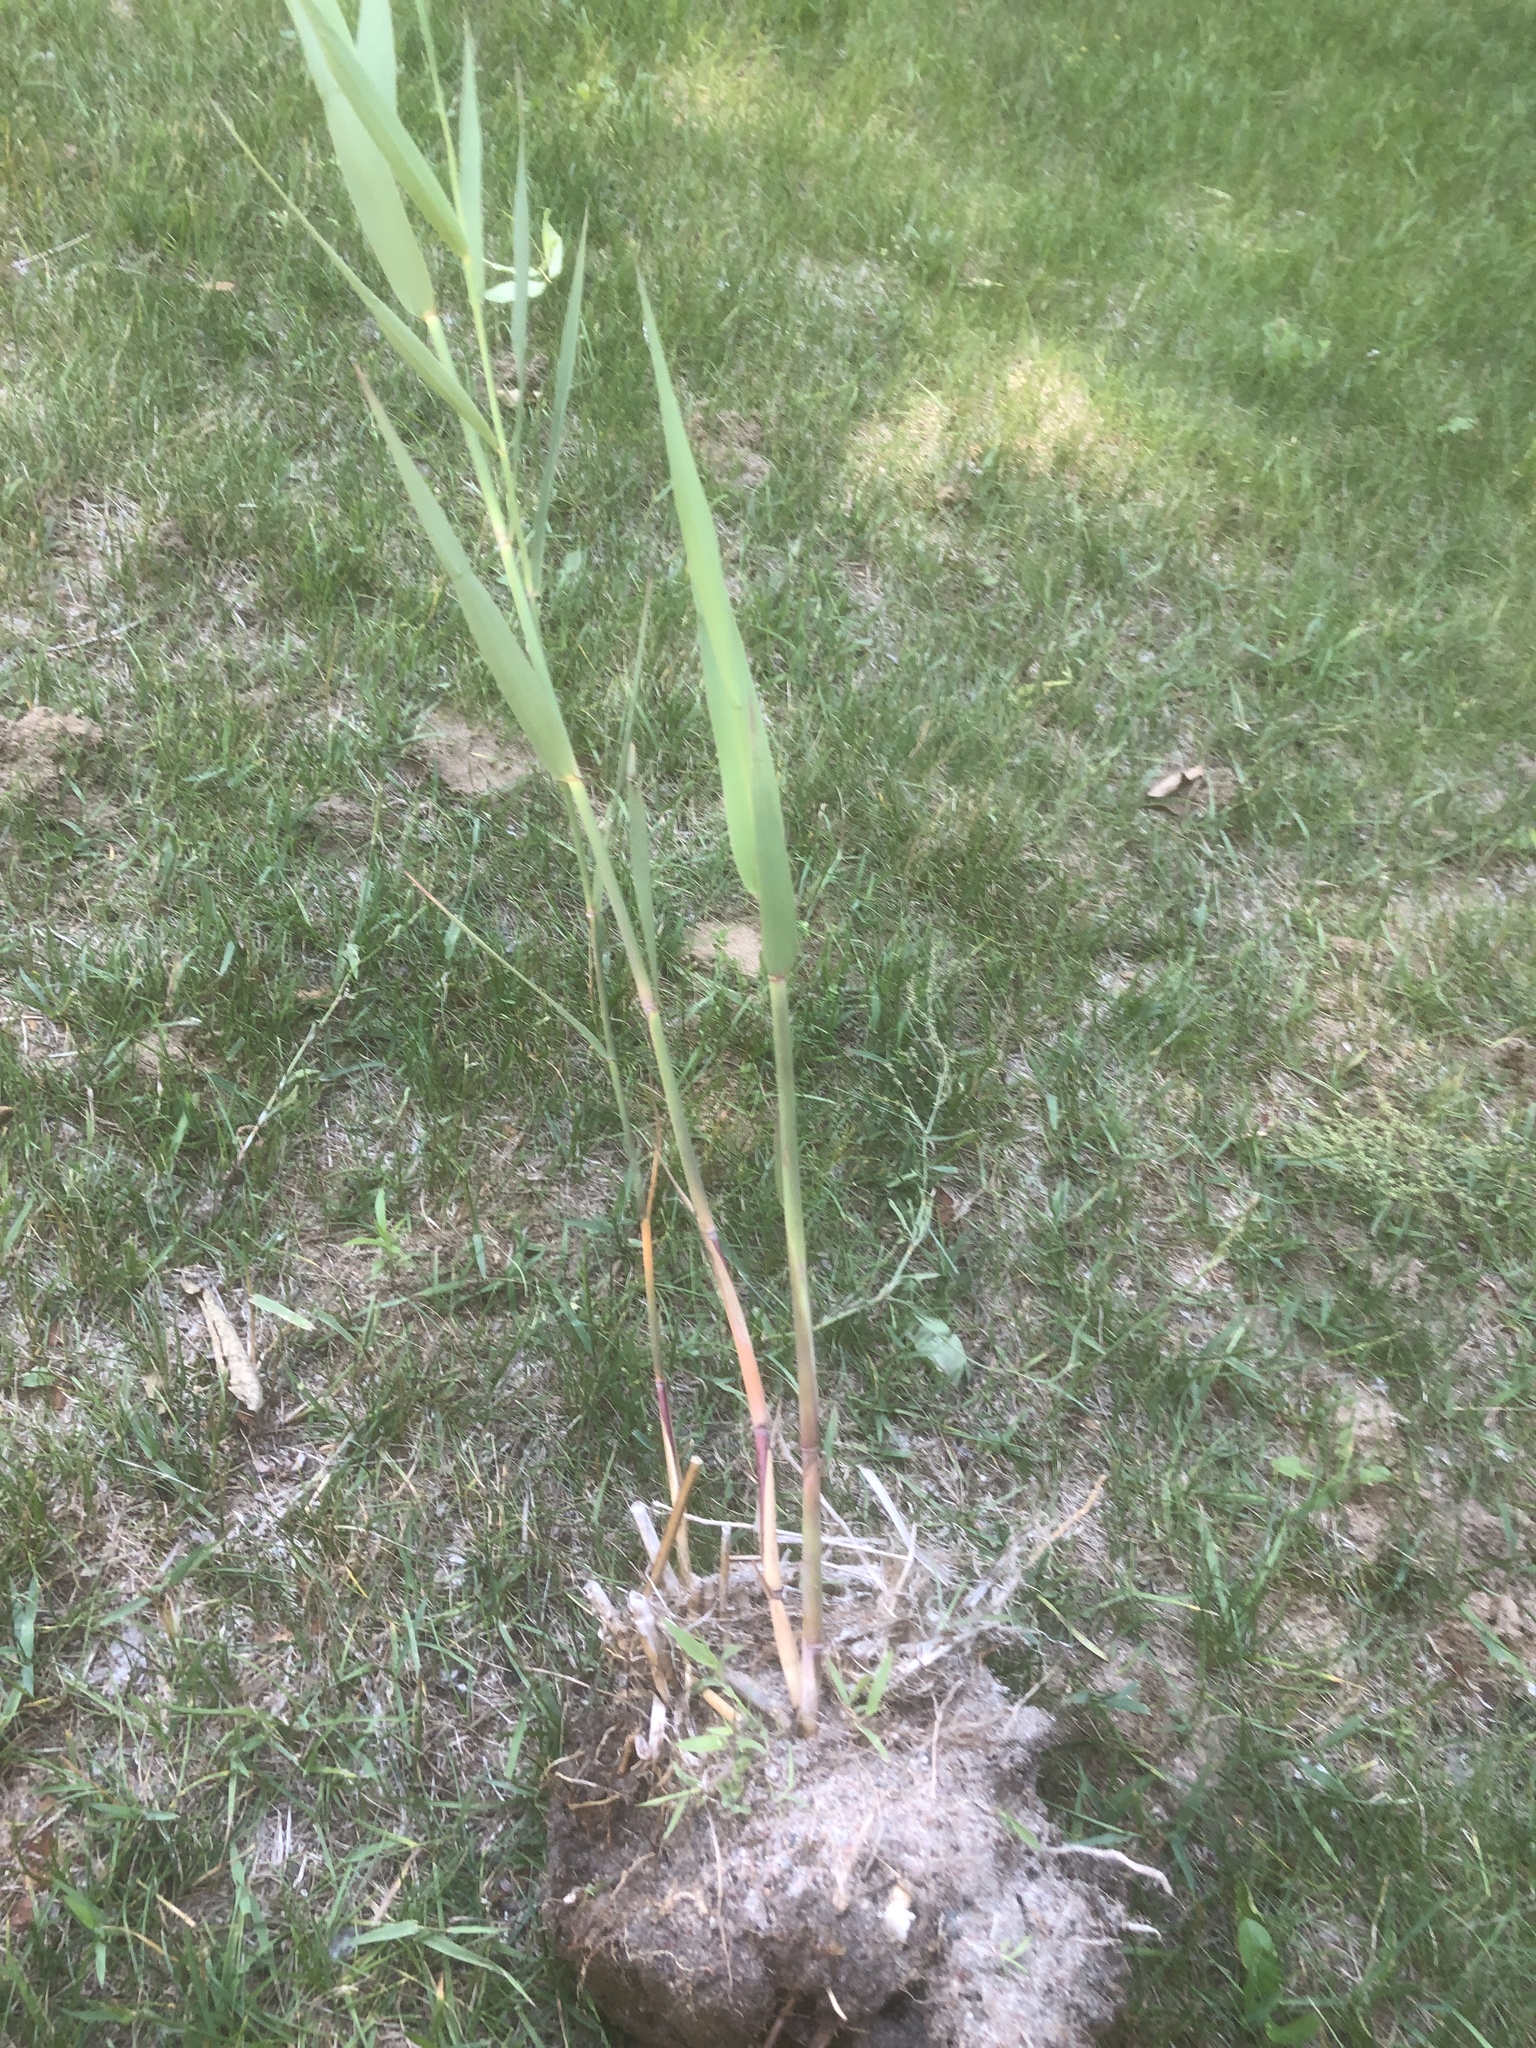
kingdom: Plantae
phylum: Tracheophyta
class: Liliopsida
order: Poales
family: Poaceae
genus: Phragmites
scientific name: Phragmites australis
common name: Common reed
